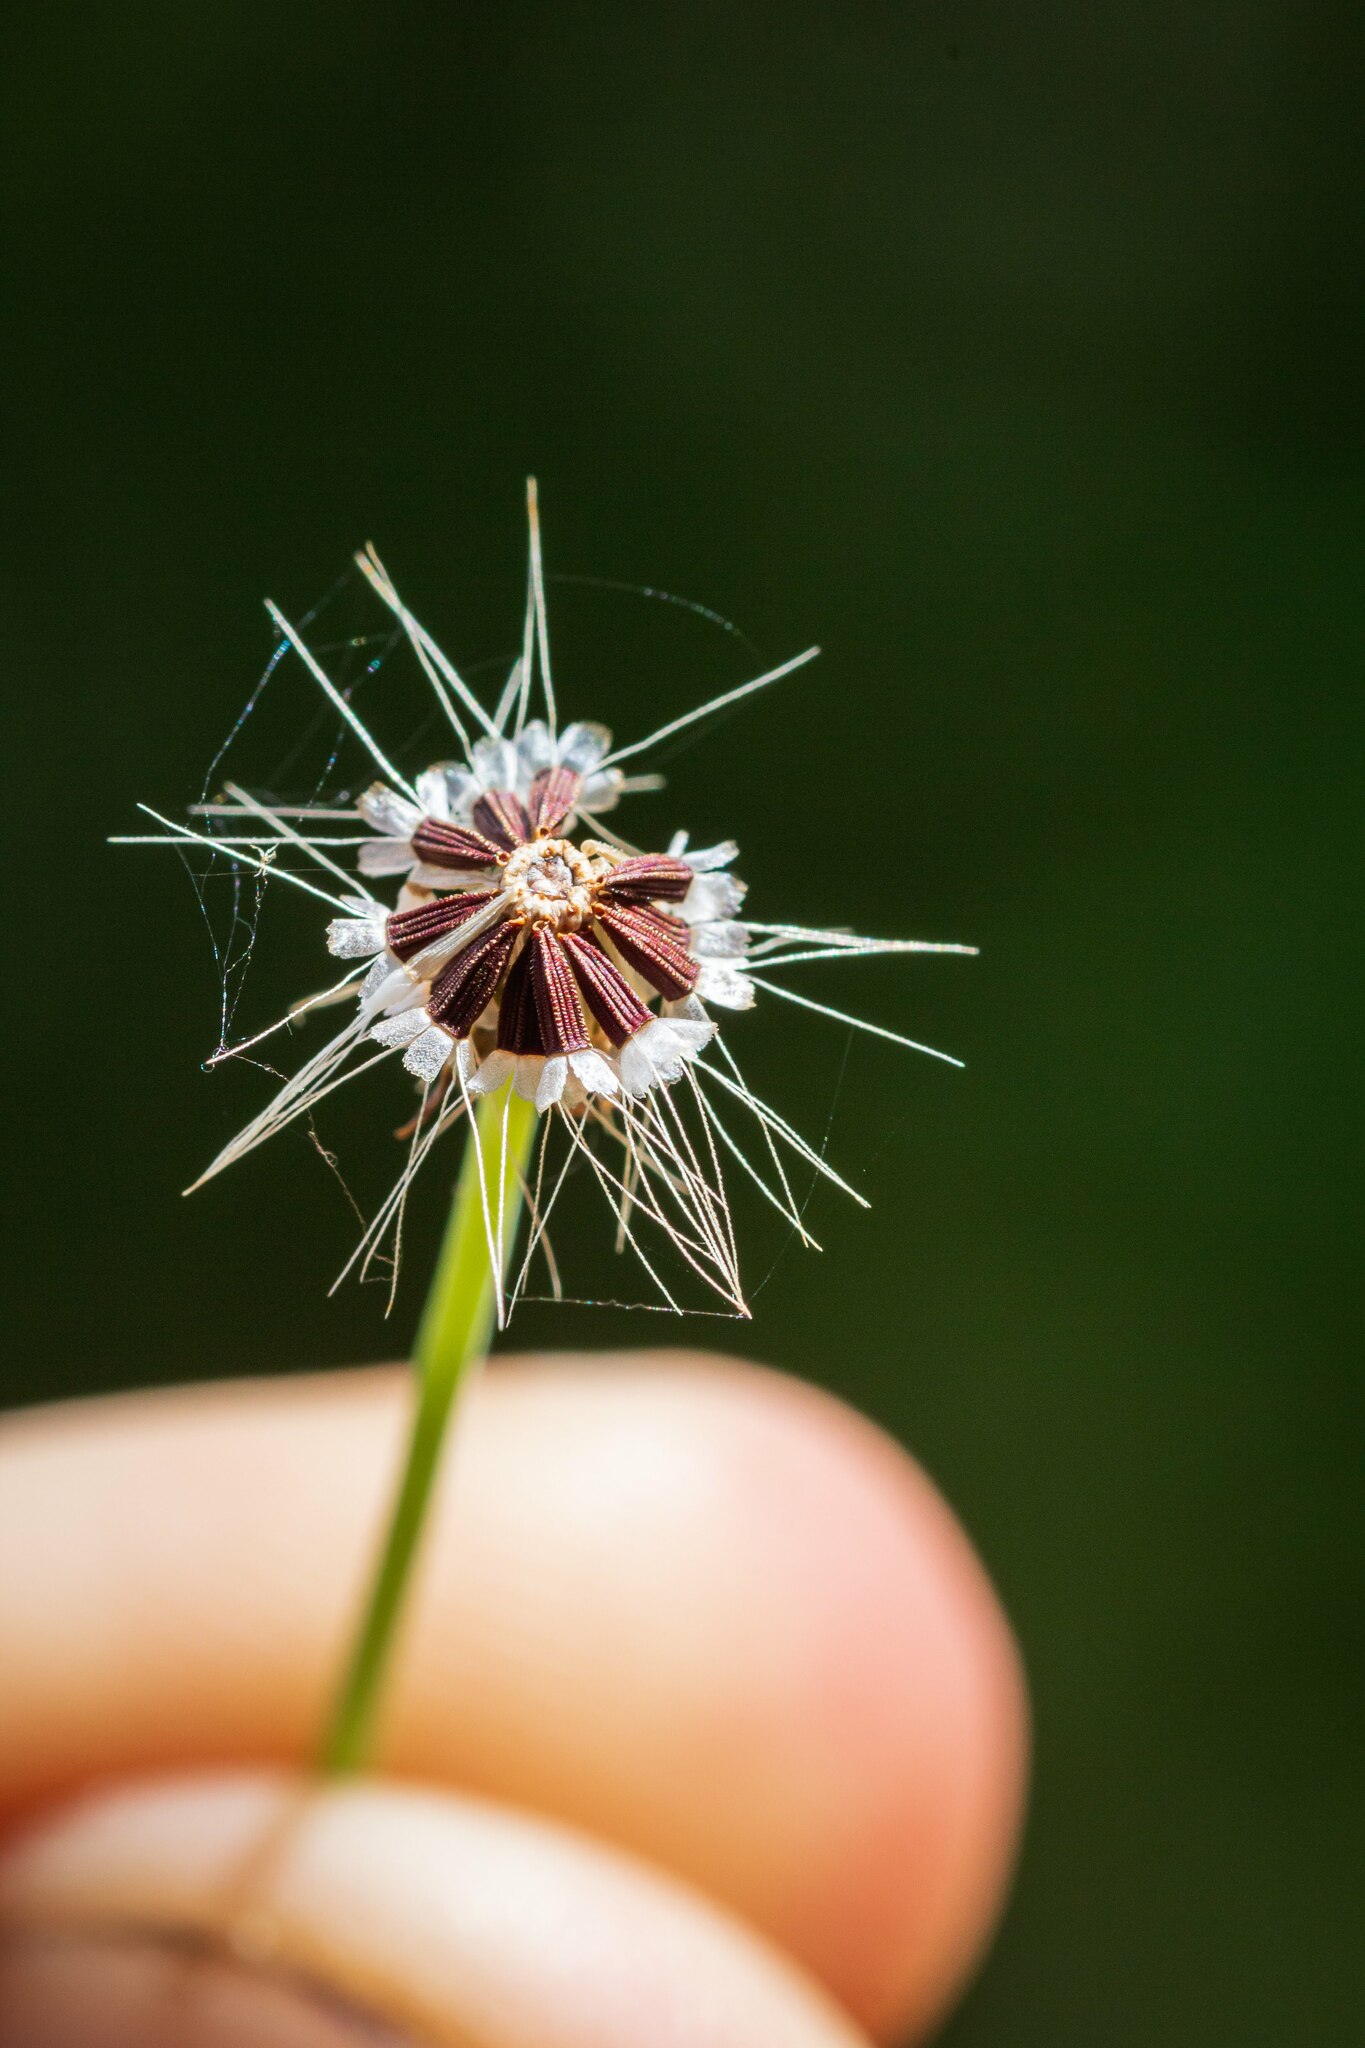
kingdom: Plantae
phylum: Tracheophyta
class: Magnoliopsida
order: Asterales
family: Asteraceae
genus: Krigia
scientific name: Krigia virginica
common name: Virginia dwarf-dandelion
